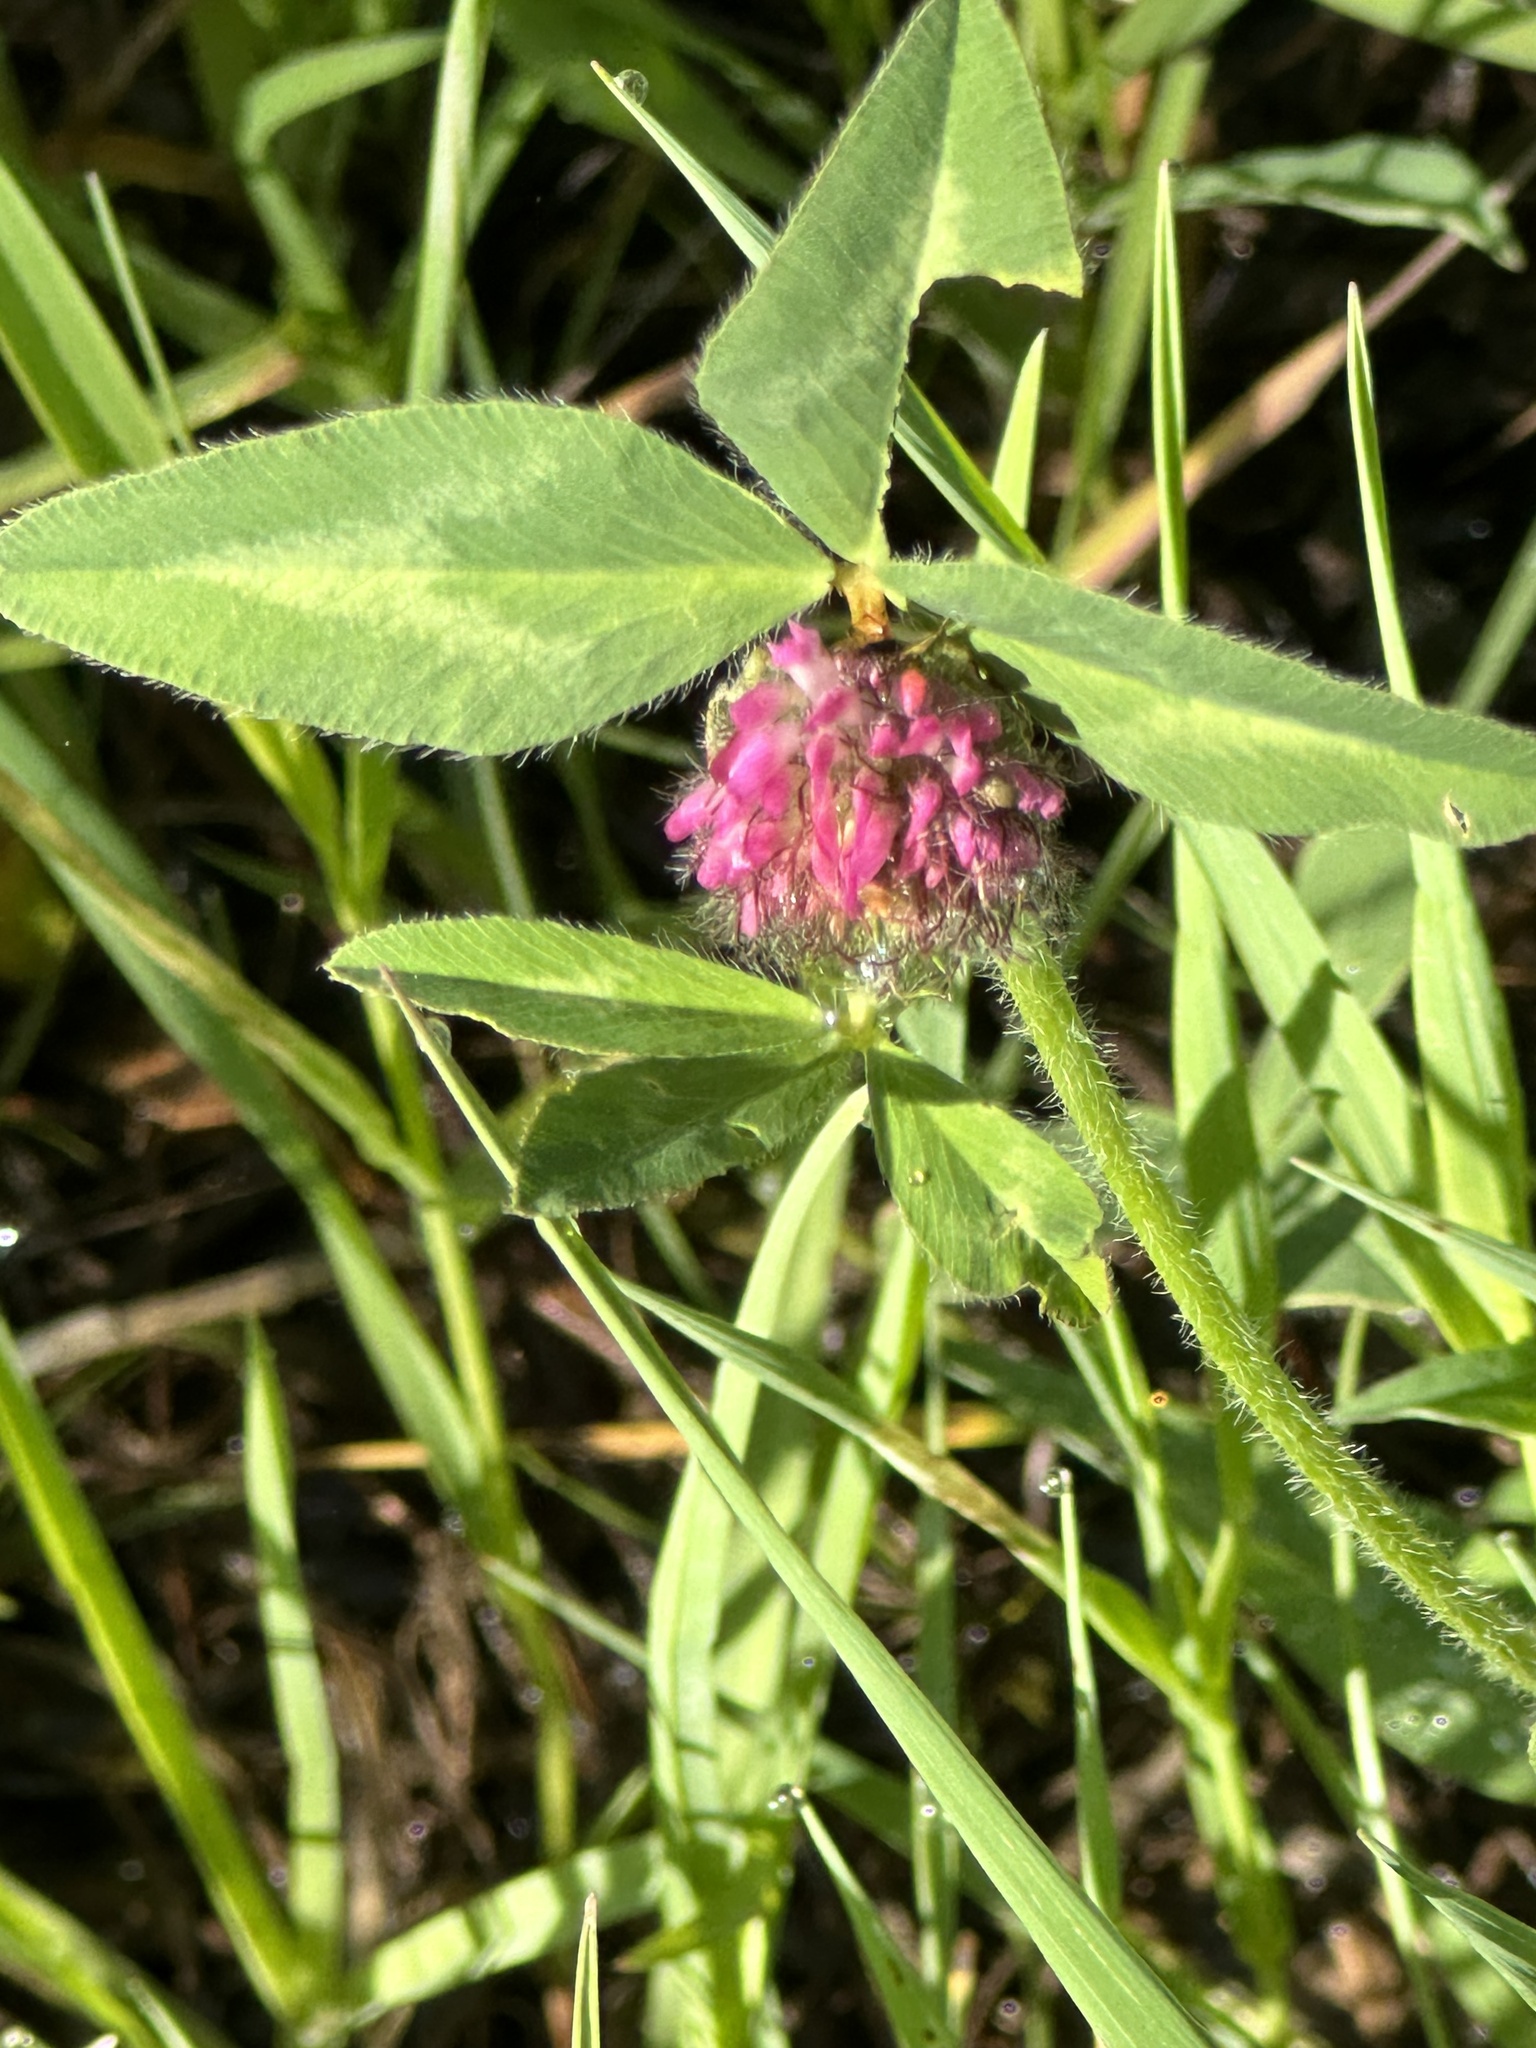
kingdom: Plantae
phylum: Tracheophyta
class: Magnoliopsida
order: Fabales
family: Fabaceae
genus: Trifolium
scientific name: Trifolium pratense
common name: Red clover
